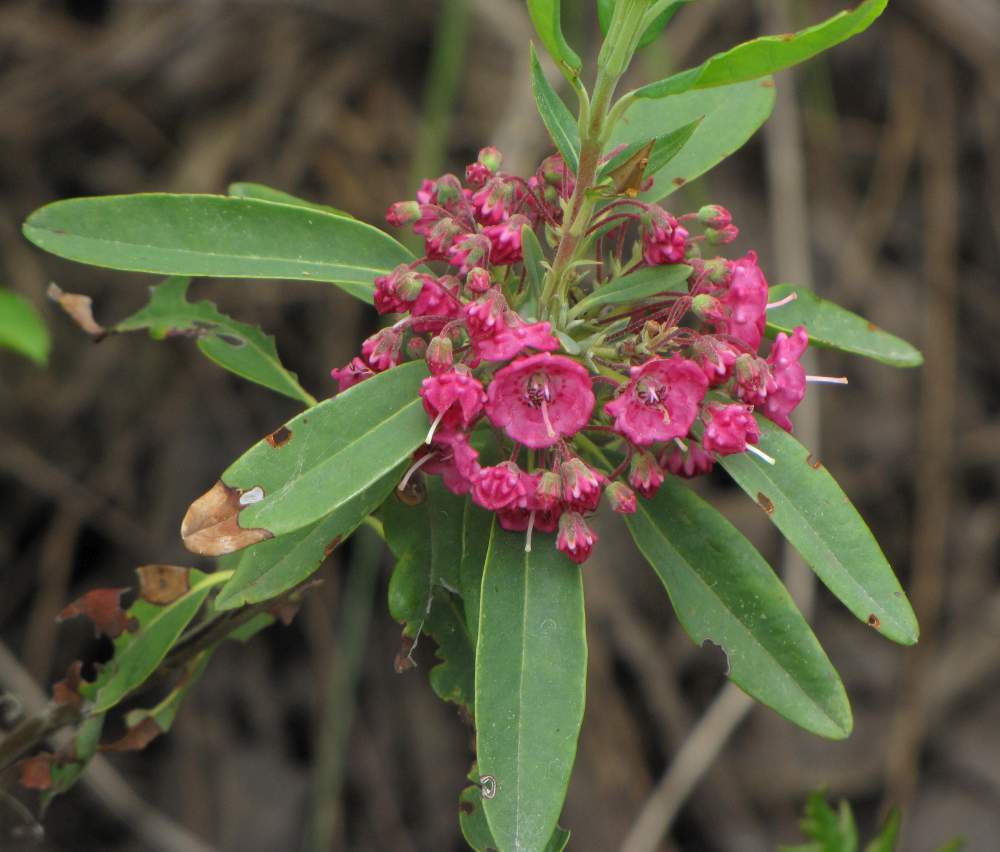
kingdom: Plantae
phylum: Tracheophyta
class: Magnoliopsida
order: Ericales
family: Ericaceae
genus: Kalmia
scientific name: Kalmia angustifolia
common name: Sheep-laurel
